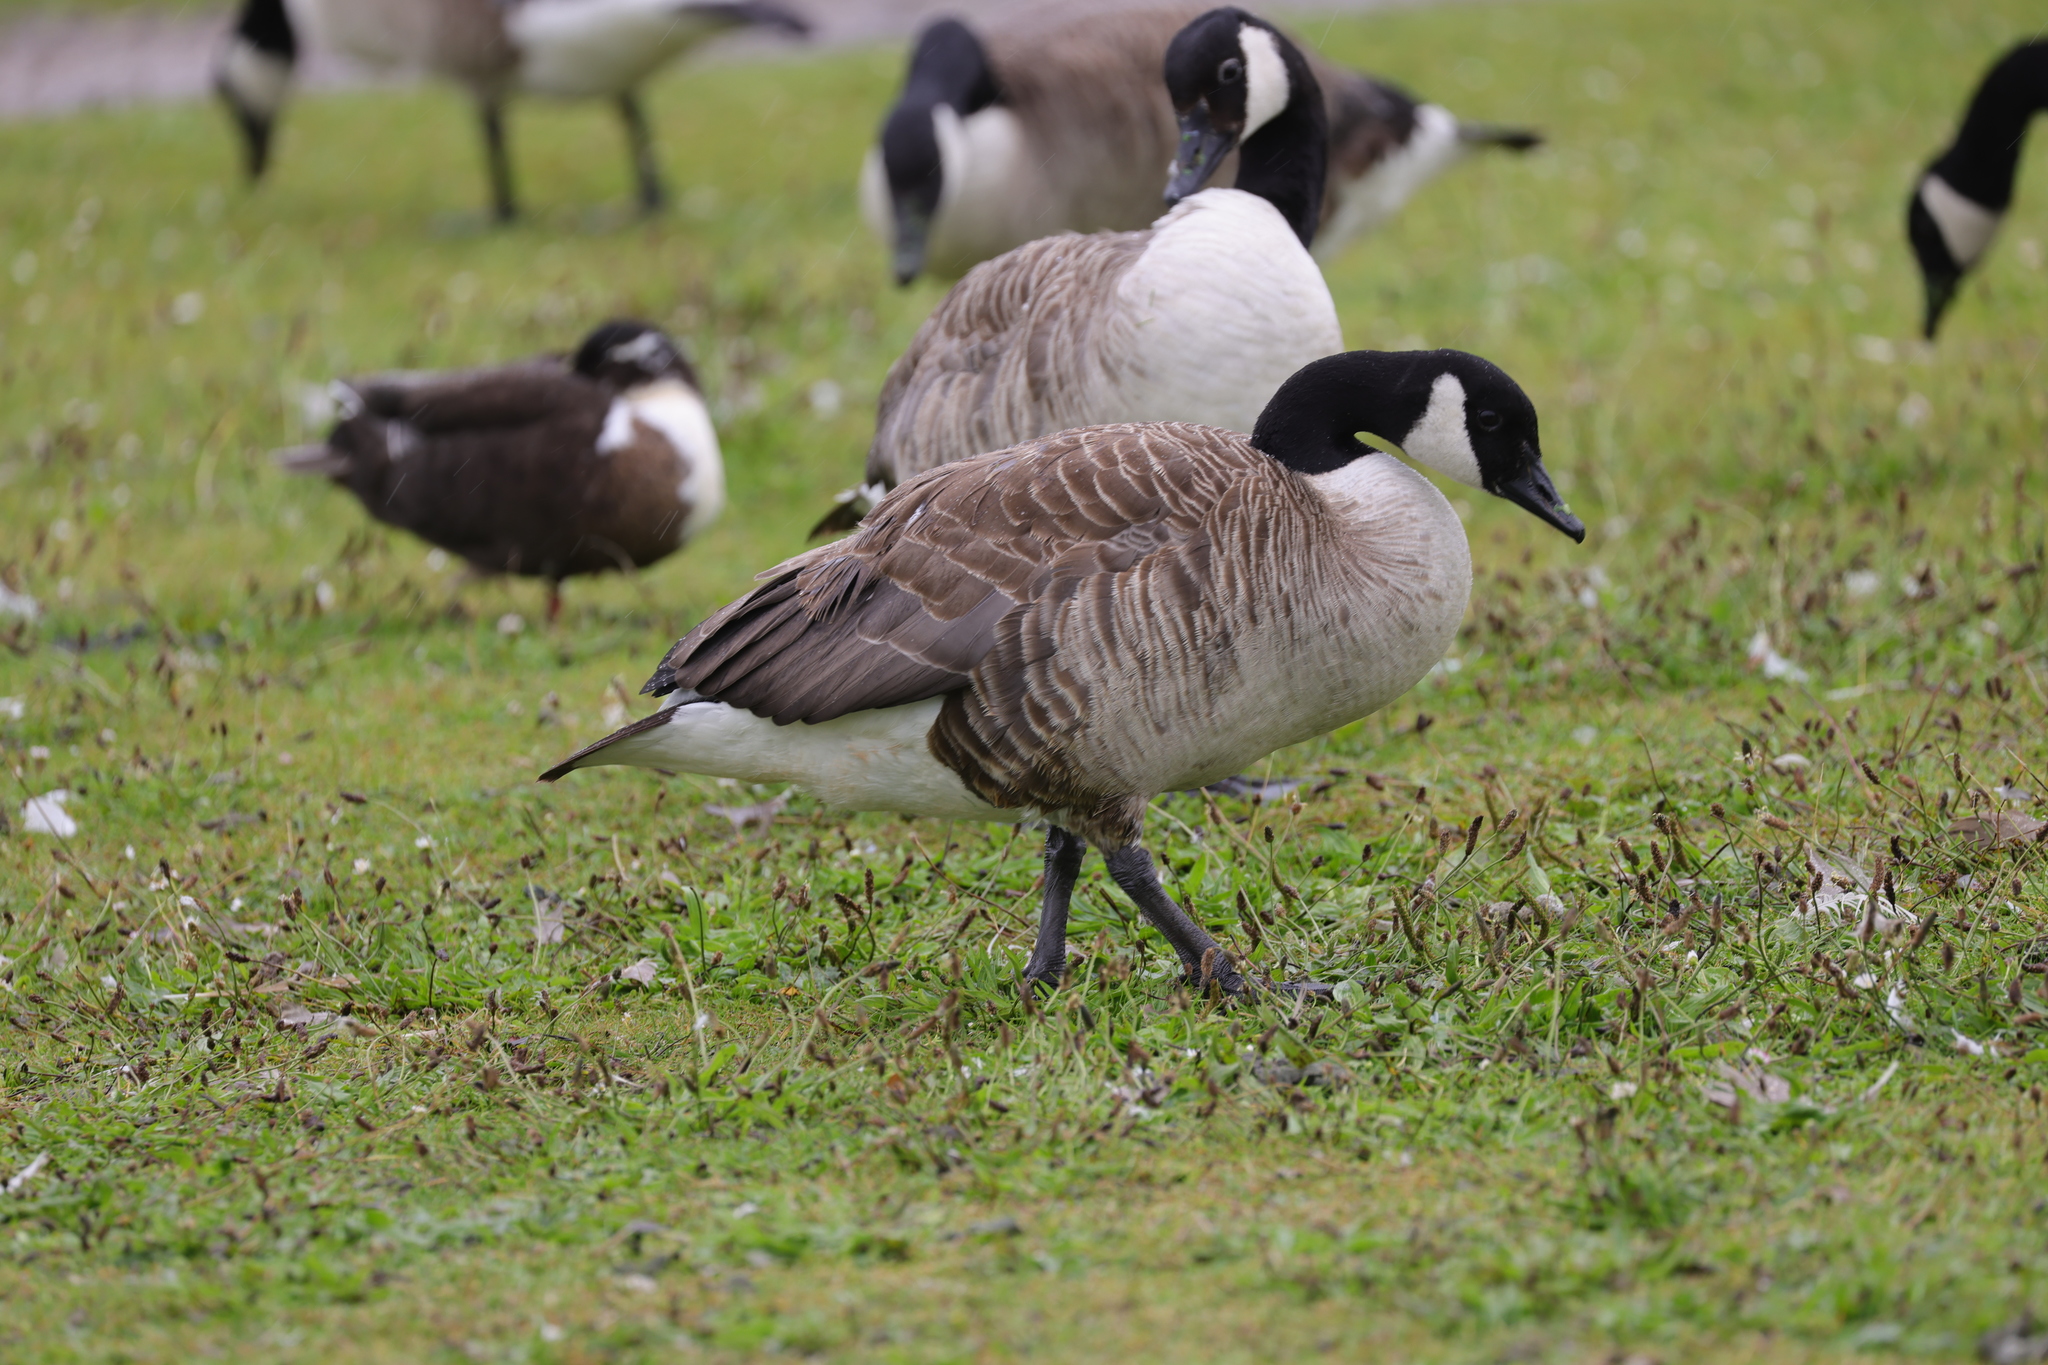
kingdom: Animalia
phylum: Chordata
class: Aves
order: Anseriformes
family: Anatidae
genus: Branta
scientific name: Branta canadensis
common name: Canada goose
